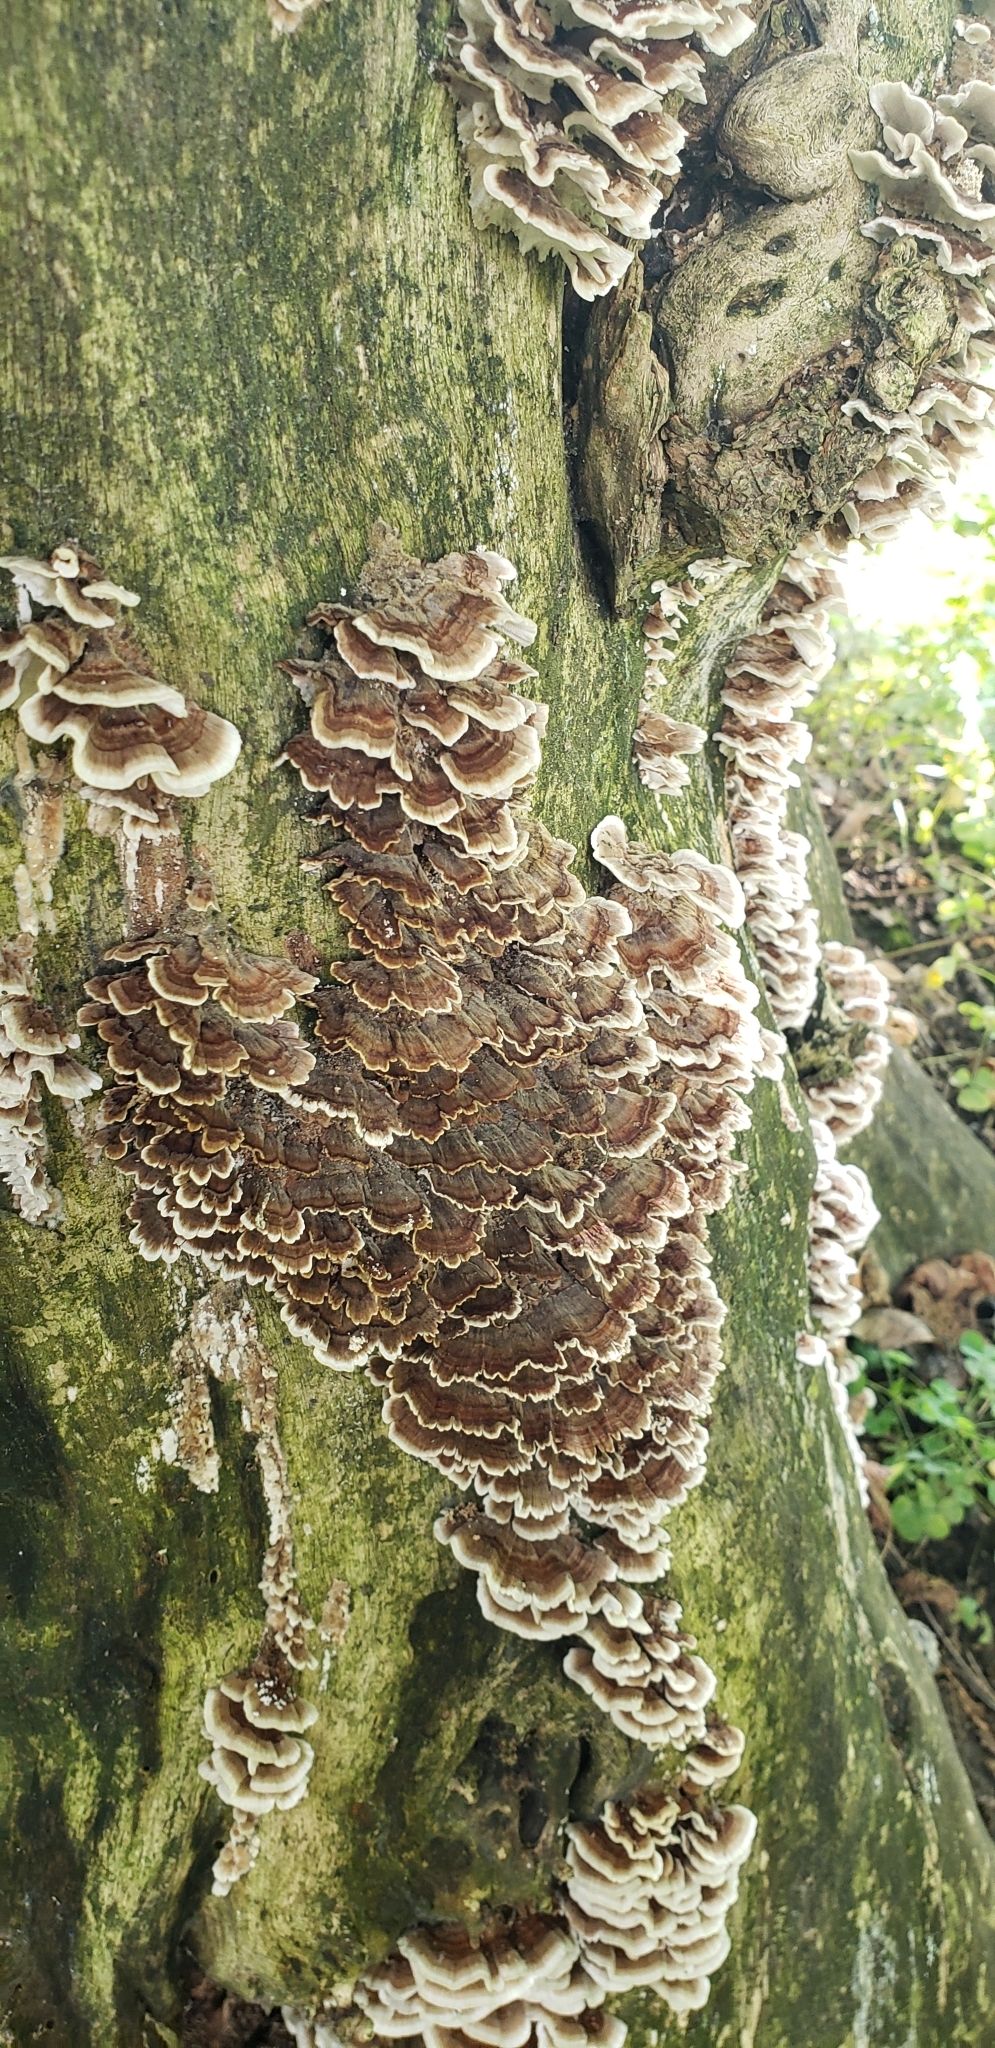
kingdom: Fungi
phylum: Basidiomycota
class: Agaricomycetes
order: Polyporales
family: Polyporaceae
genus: Trametes
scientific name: Trametes versicolor
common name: Turkeytail
